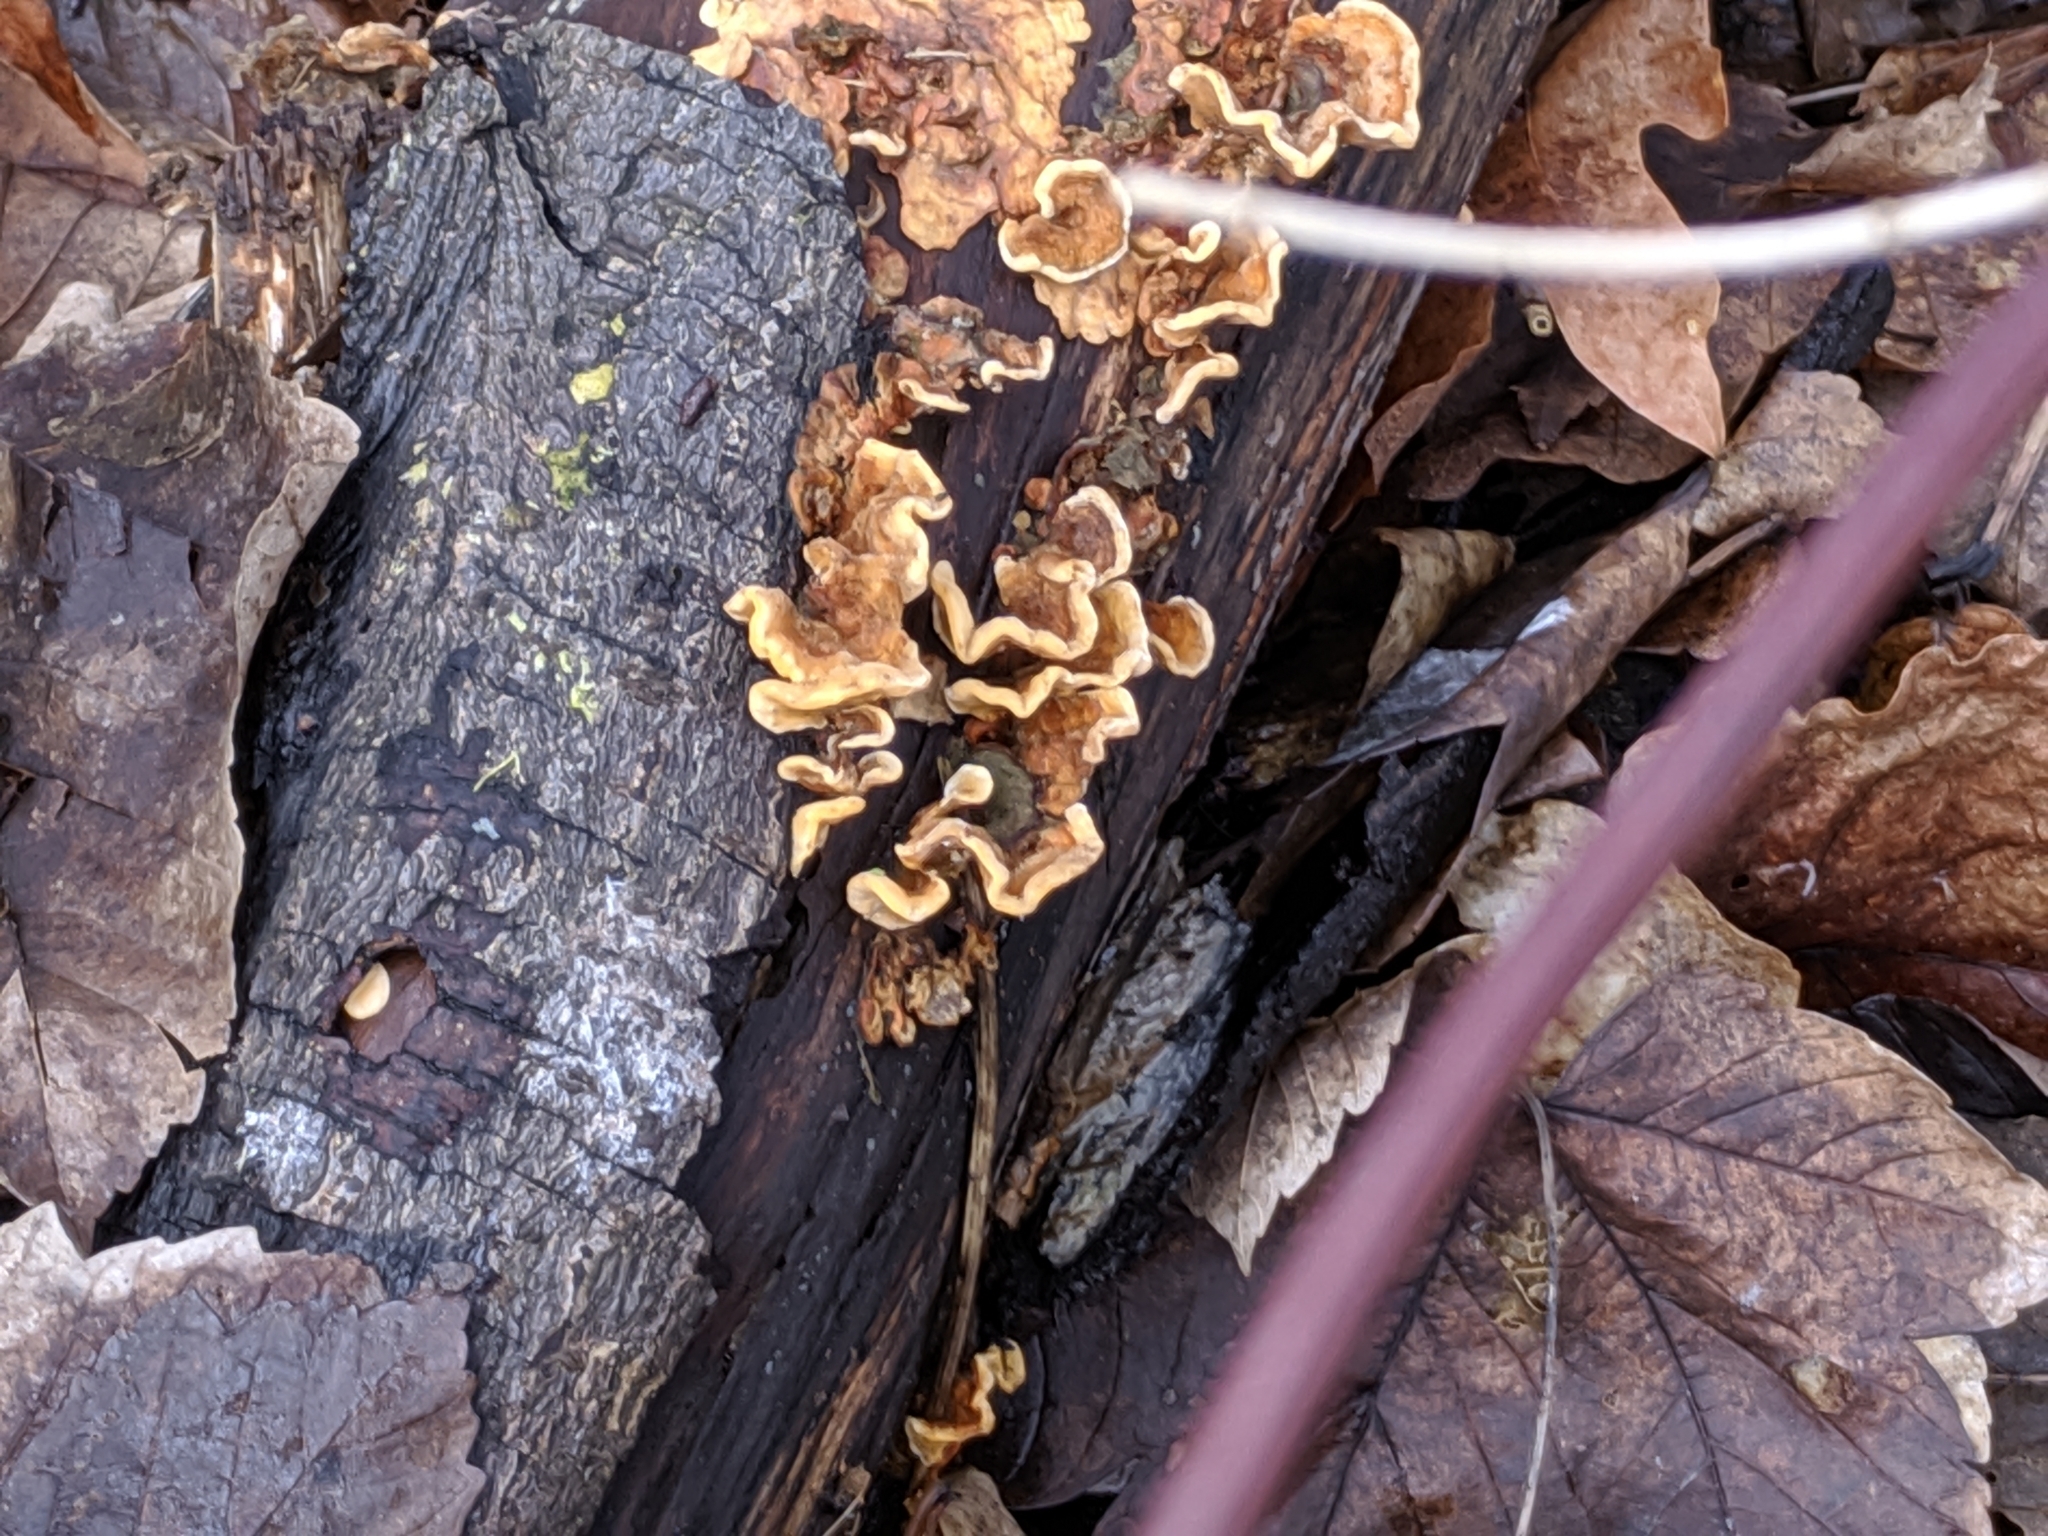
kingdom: Fungi
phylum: Basidiomycota
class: Agaricomycetes
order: Russulales
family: Stereaceae
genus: Stereum
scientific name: Stereum hirsutum
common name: Hairy curtain crust
